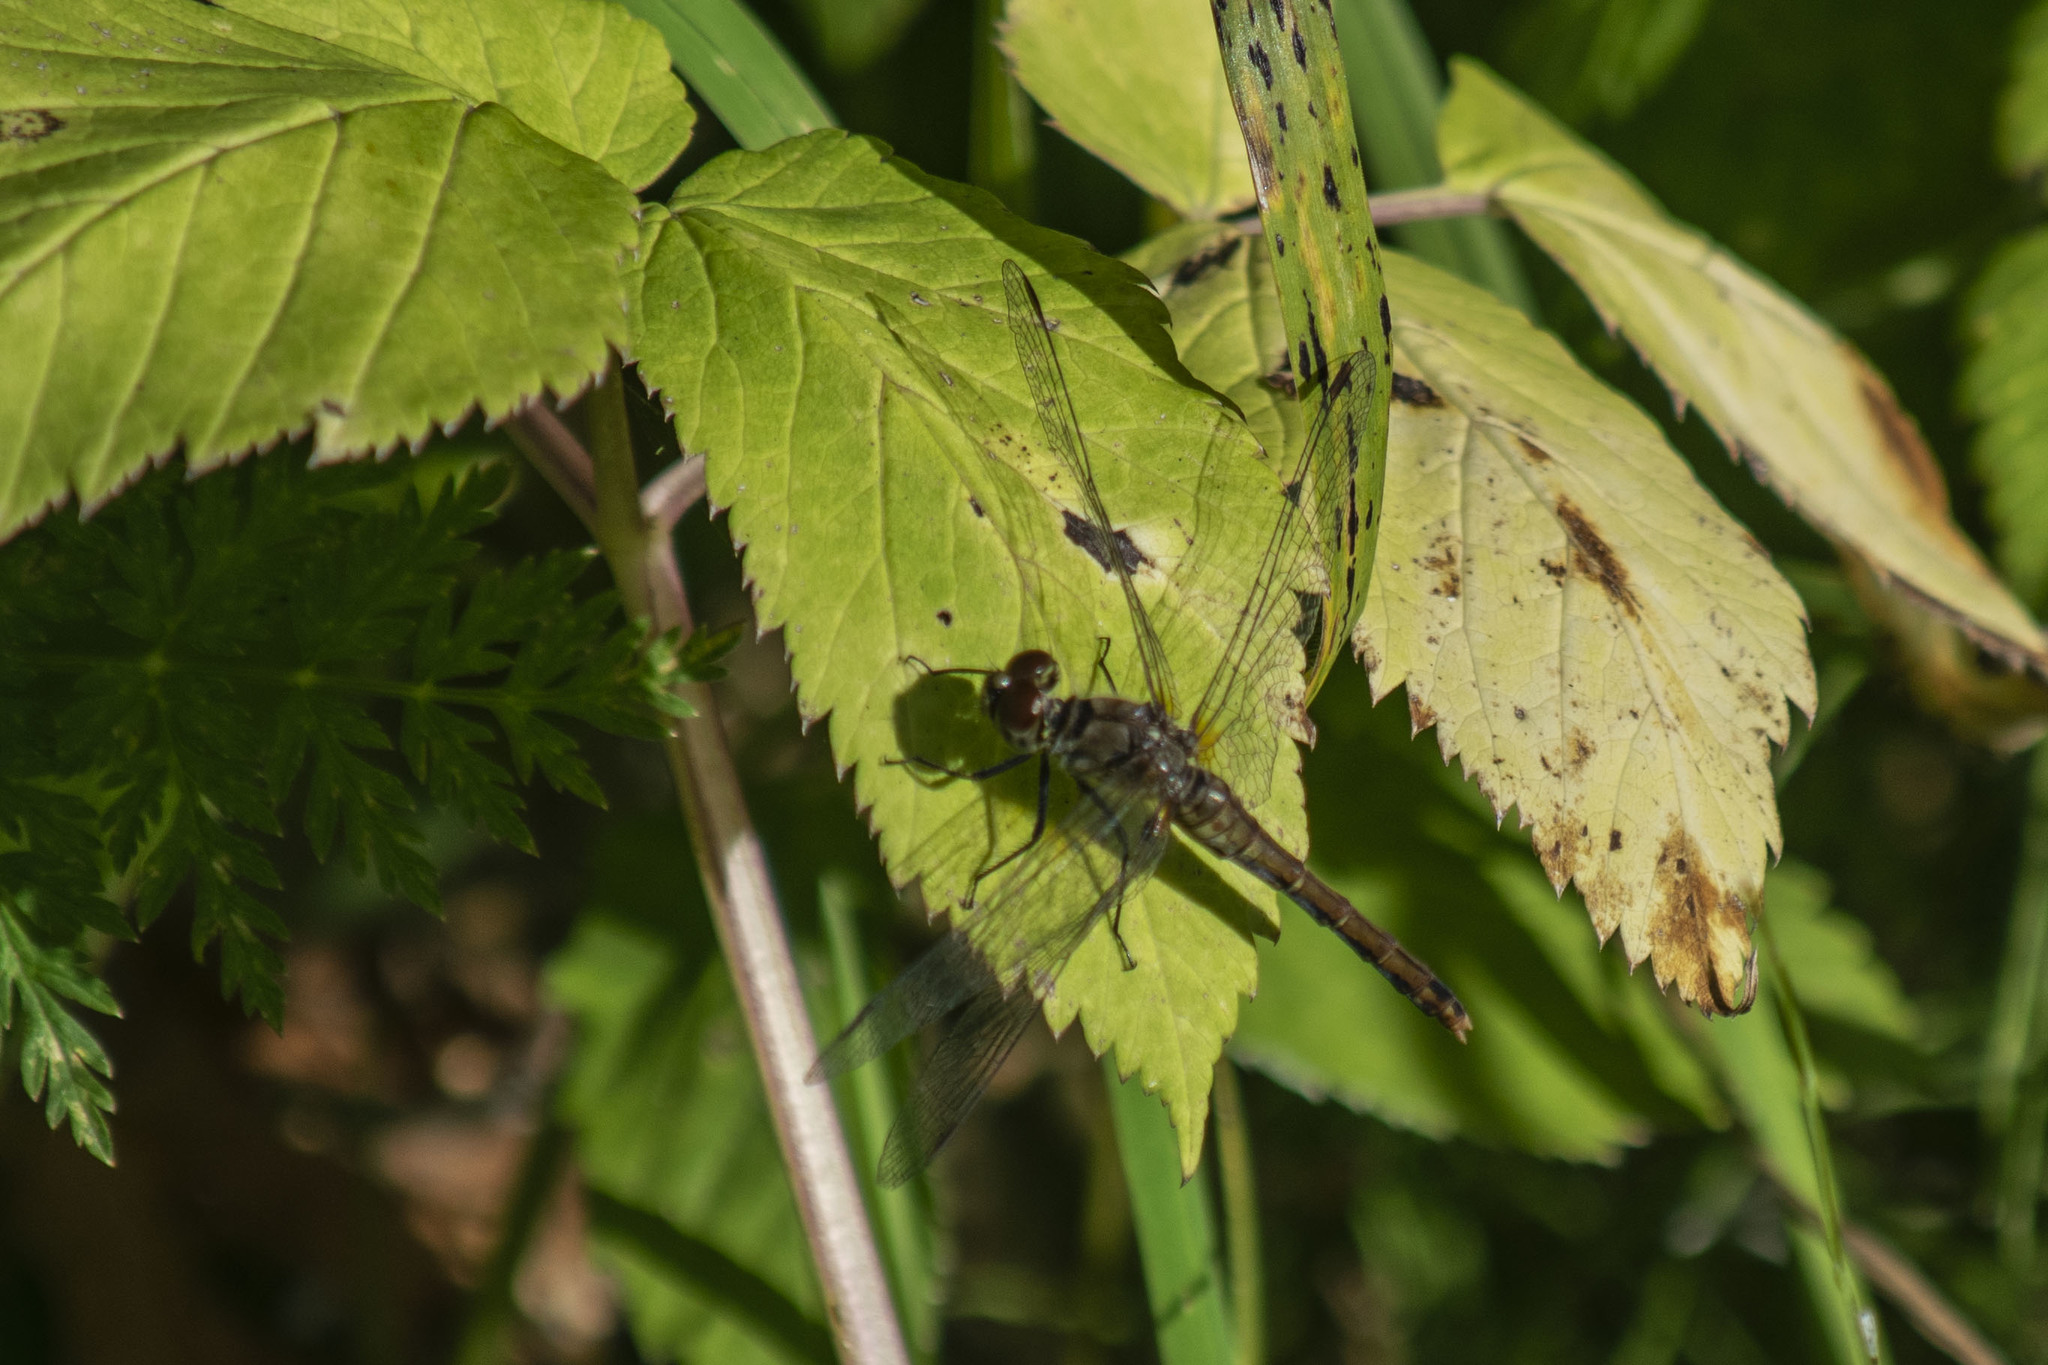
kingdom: Animalia
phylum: Arthropoda
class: Insecta
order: Odonata
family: Libellulidae
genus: Sympetrum
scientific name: Sympetrum sanguineum
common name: Ruddy darter
